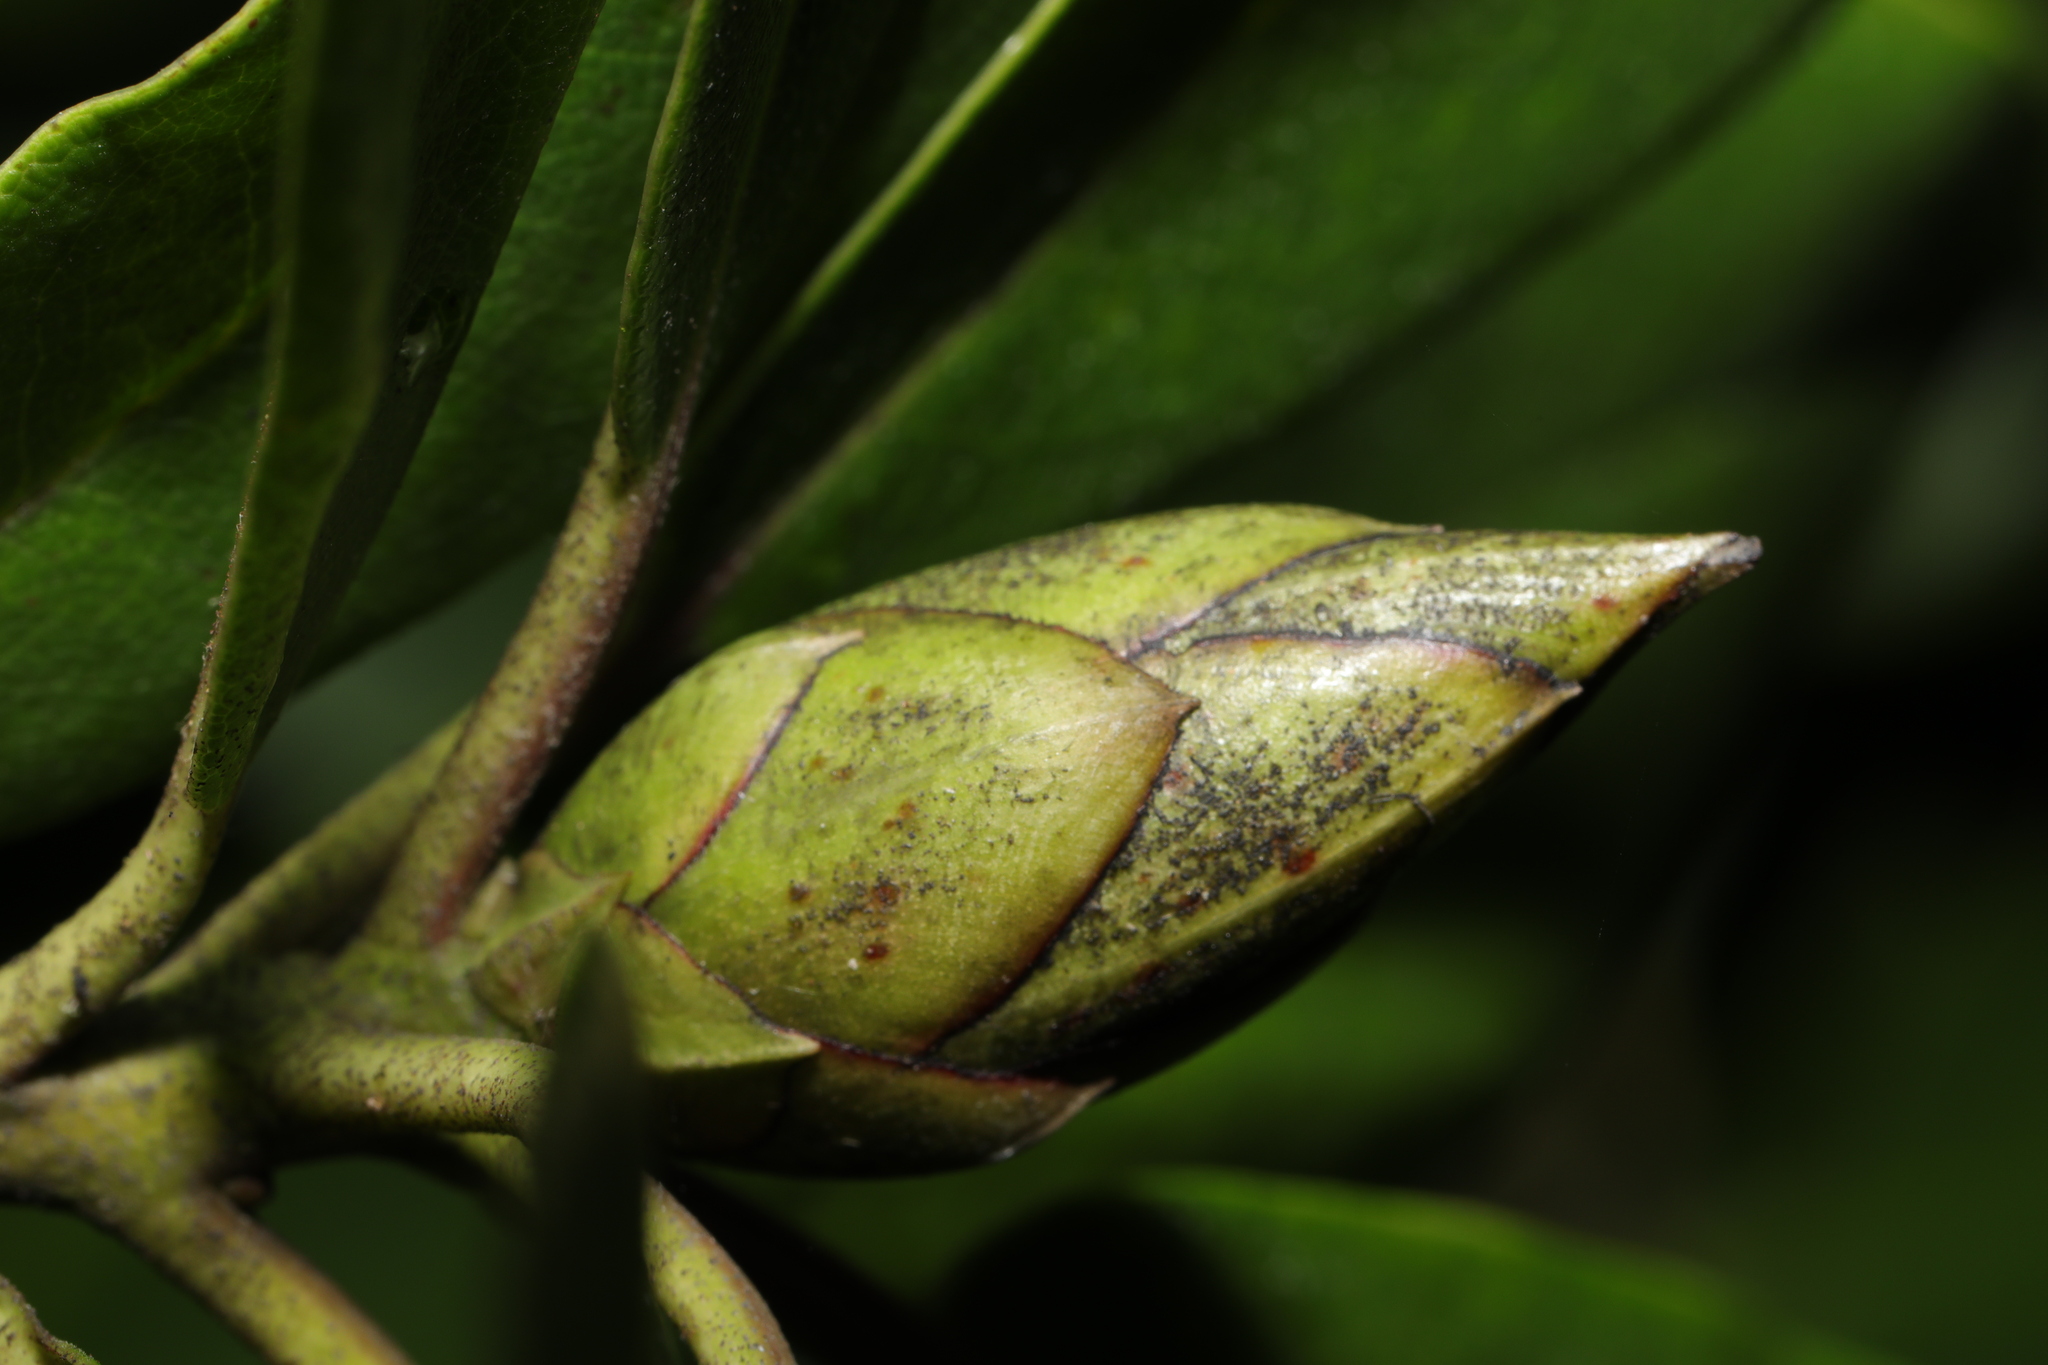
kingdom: Fungi
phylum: Ascomycota
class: Dothideomycetes
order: Pleosporales
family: Melanommataceae
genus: Seifertia
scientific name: Seifertia azaleae
